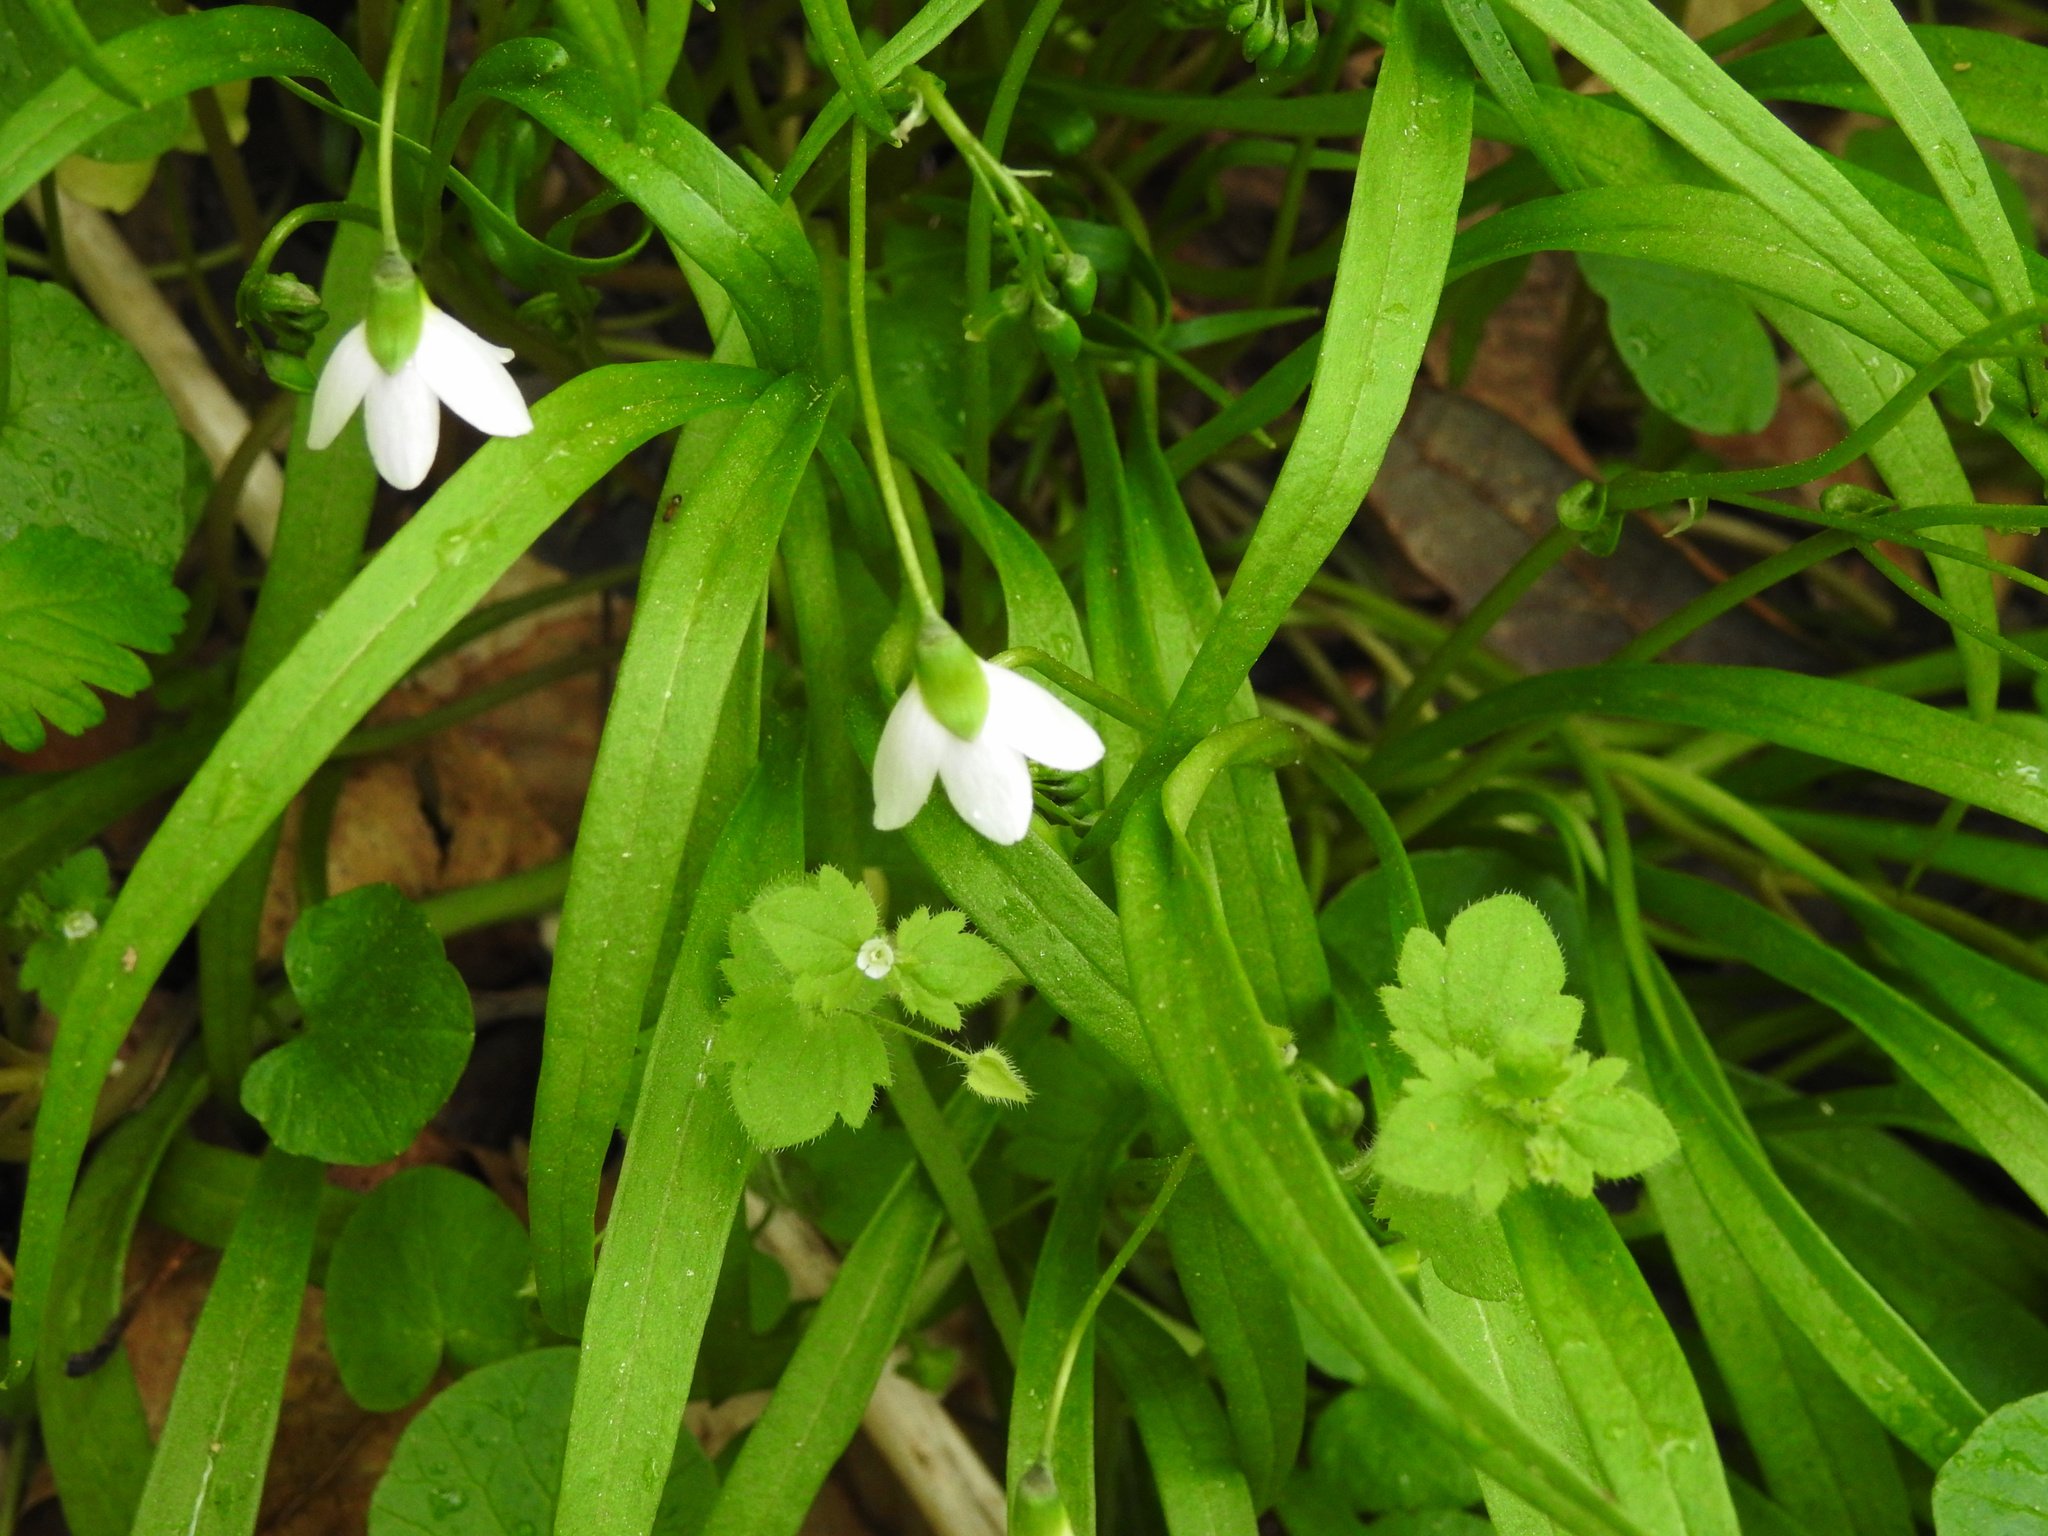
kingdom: Plantae
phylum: Tracheophyta
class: Magnoliopsida
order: Caryophyllales
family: Montiaceae
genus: Claytonia
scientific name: Claytonia virginica
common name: Virginia springbeauty
